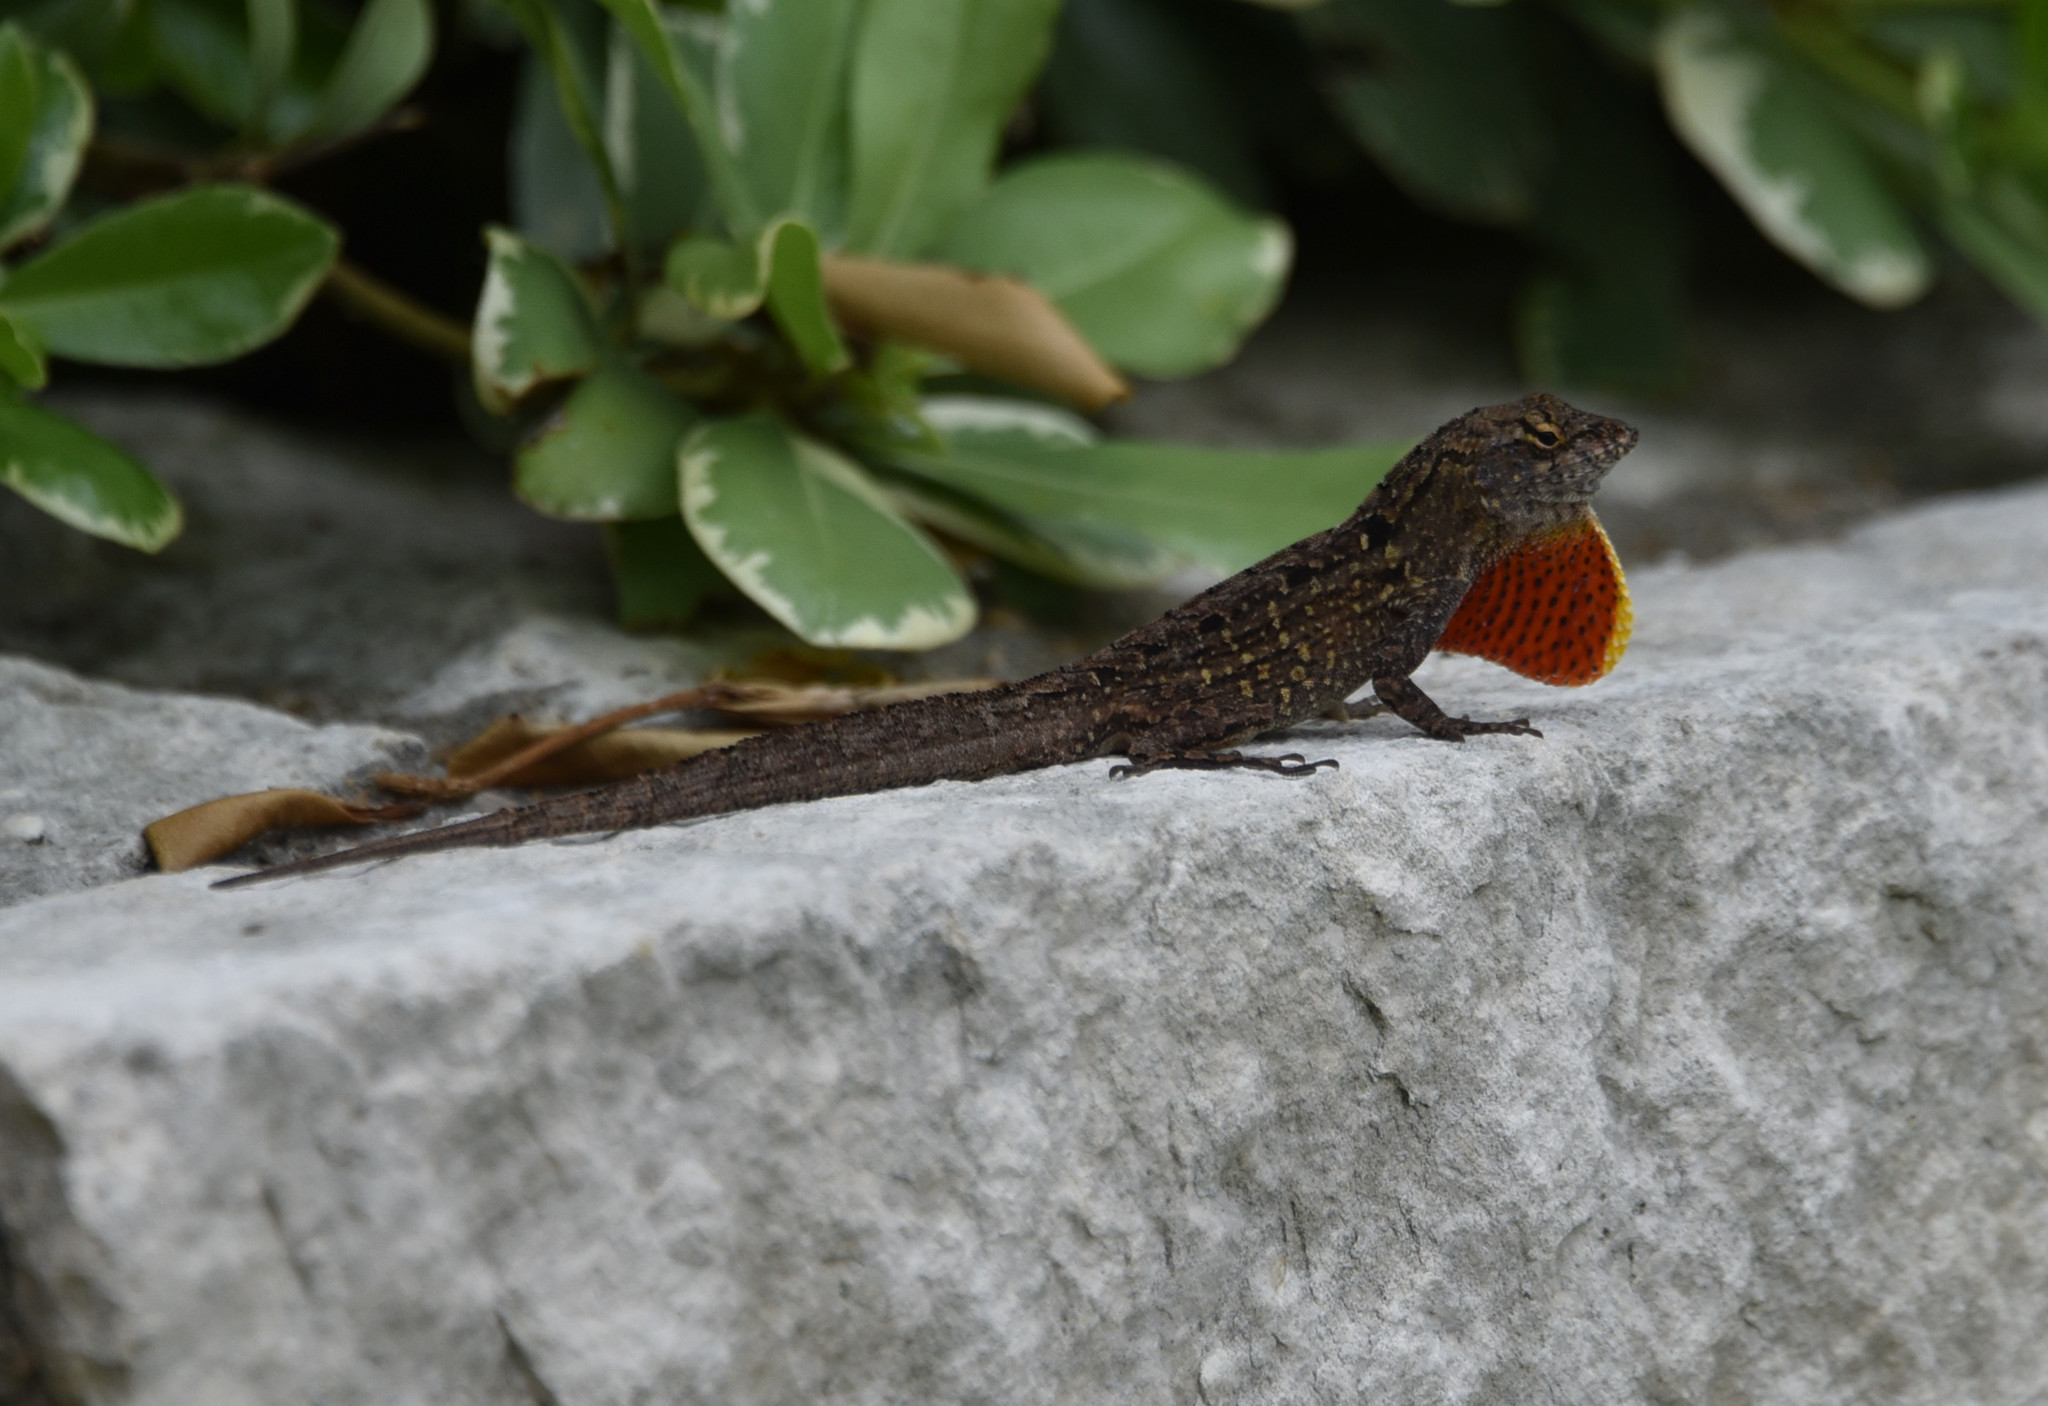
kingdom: Animalia
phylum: Chordata
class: Squamata
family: Dactyloidae
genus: Anolis
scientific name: Anolis sagrei
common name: Brown anole
